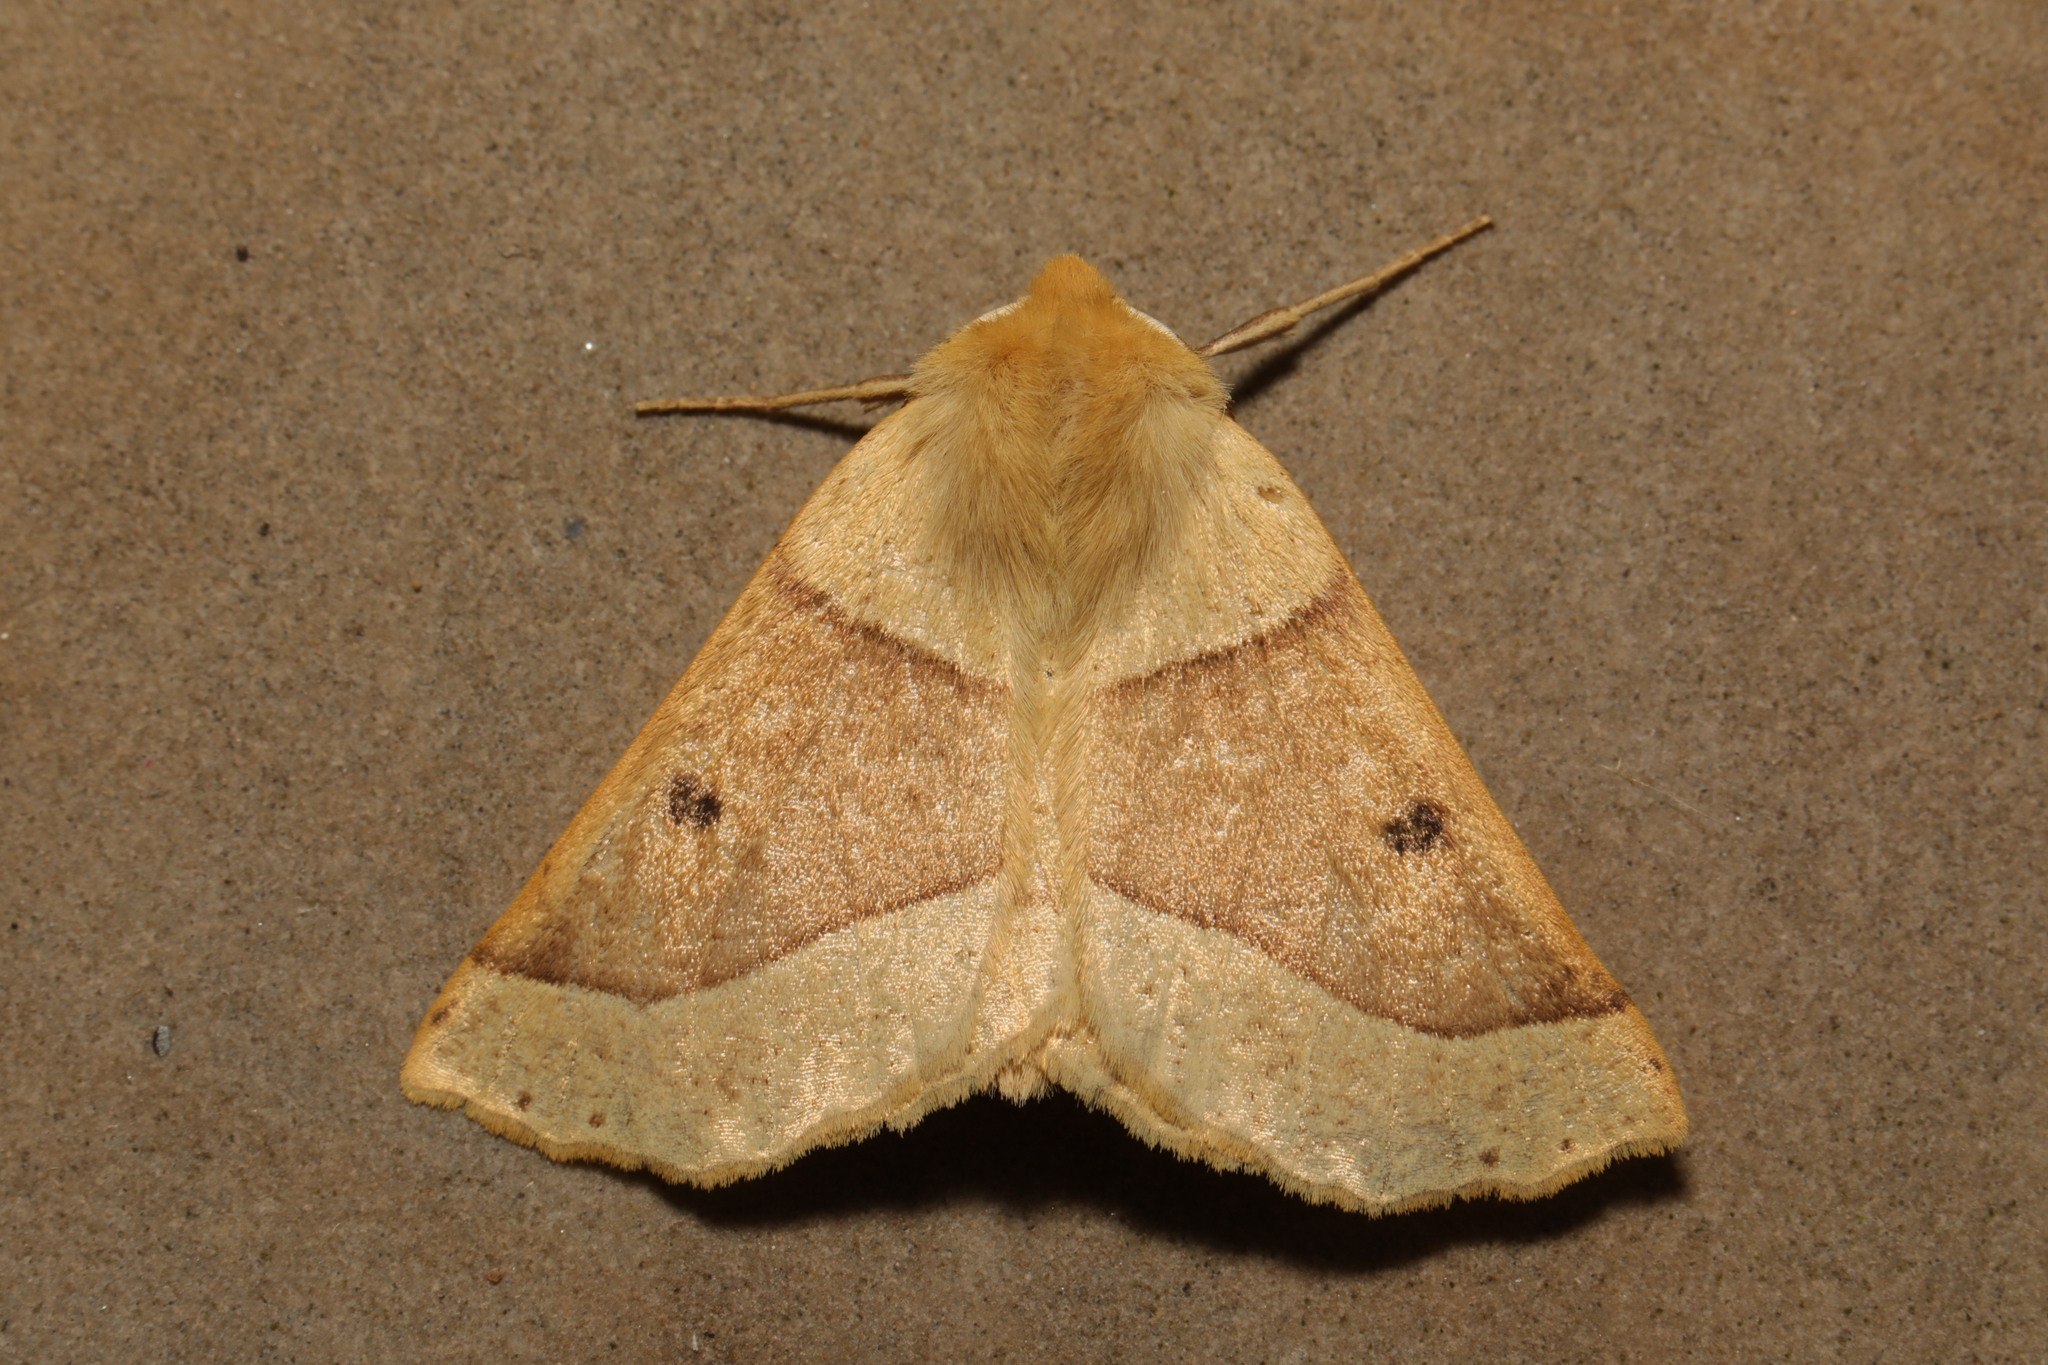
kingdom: Animalia
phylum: Arthropoda
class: Insecta
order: Lepidoptera
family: Geometridae
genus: Crocallis
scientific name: Crocallis elinguaria
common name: Scalloped oak
